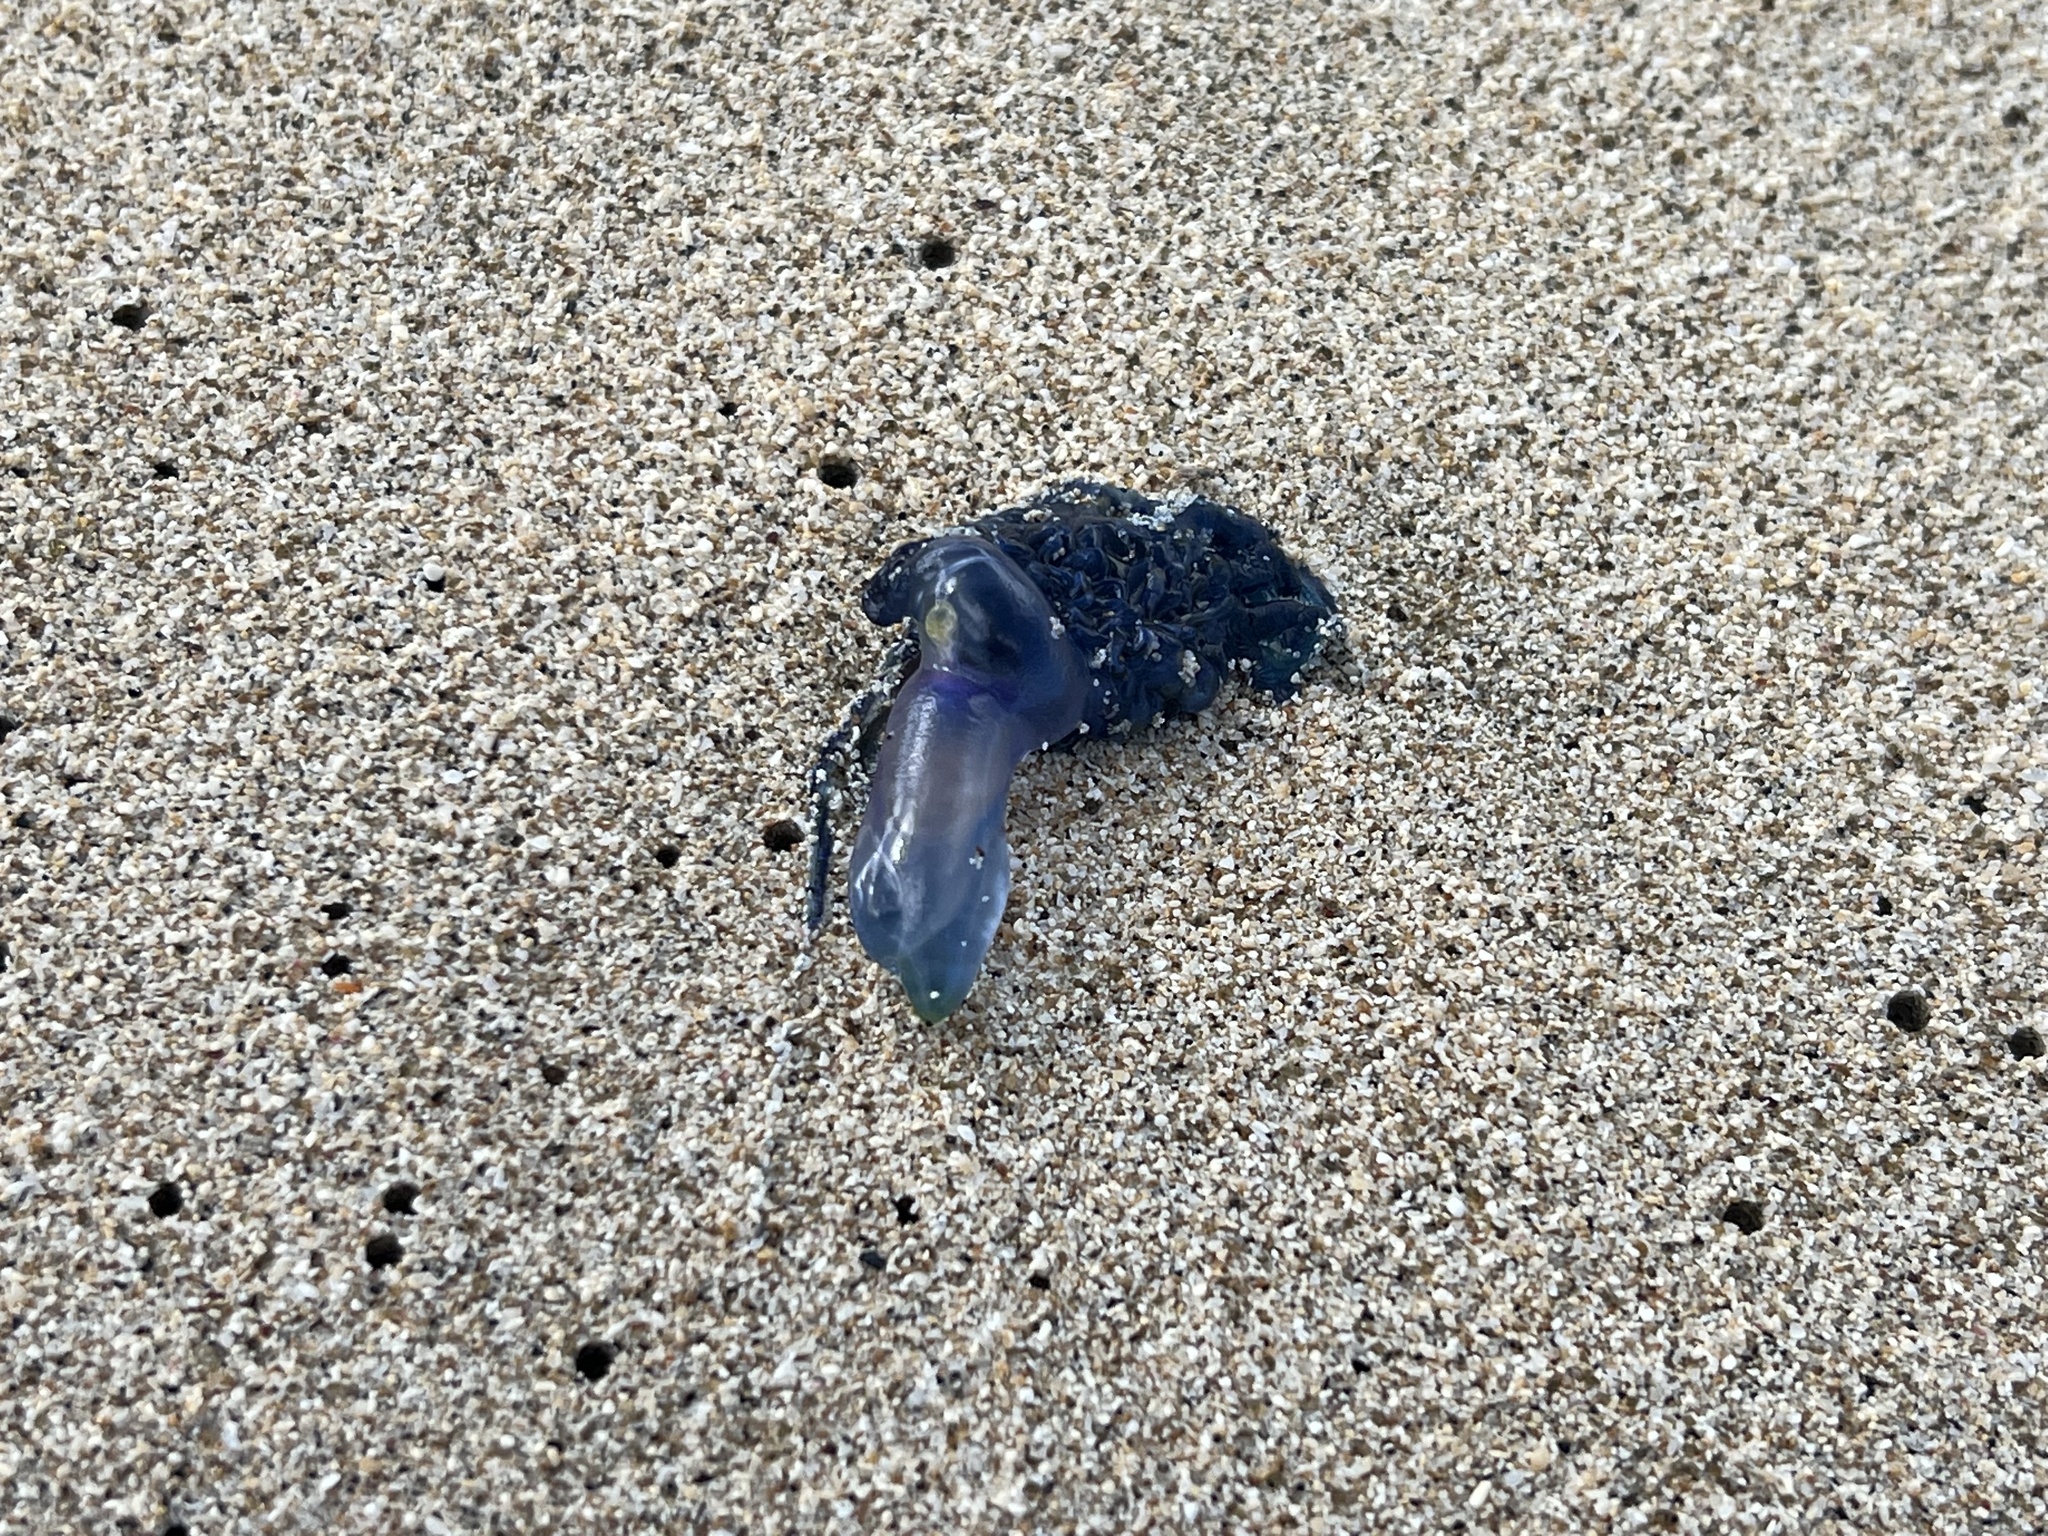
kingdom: Animalia
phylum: Cnidaria
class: Hydrozoa
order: Siphonophorae
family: Physaliidae
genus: Physalia
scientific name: Physalia physalis
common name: Portuguese man-of-war
